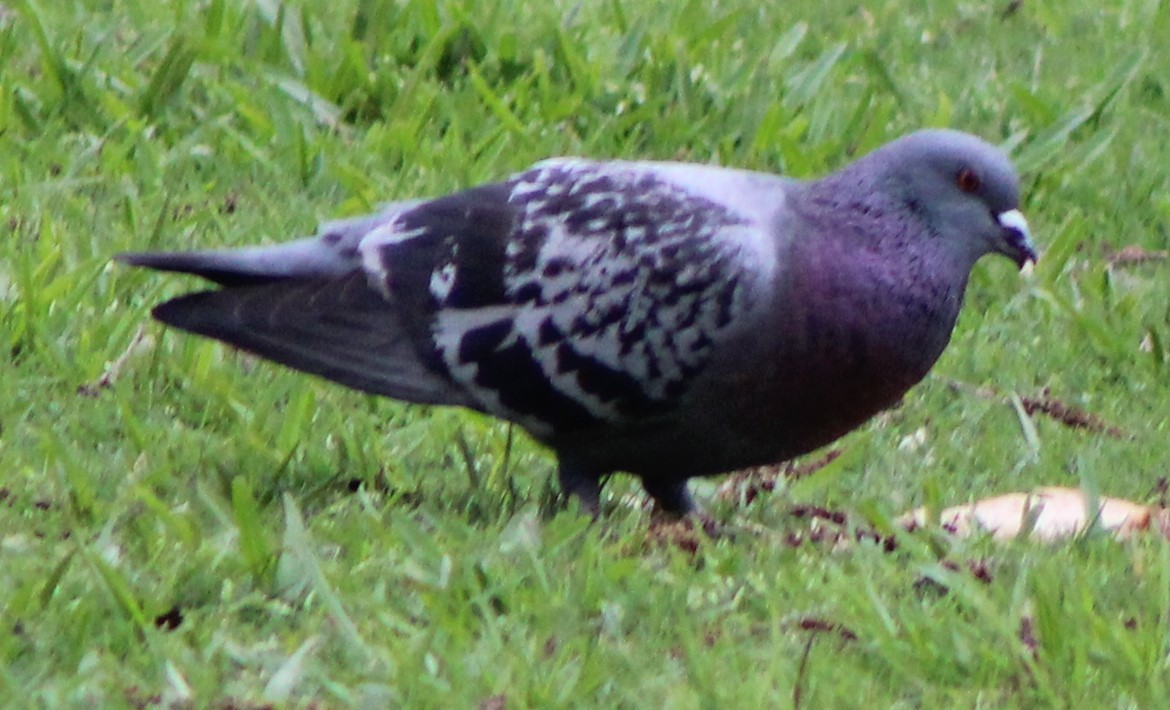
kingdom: Animalia
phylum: Chordata
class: Aves
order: Columbiformes
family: Columbidae
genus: Columba
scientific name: Columba livia
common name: Rock pigeon
